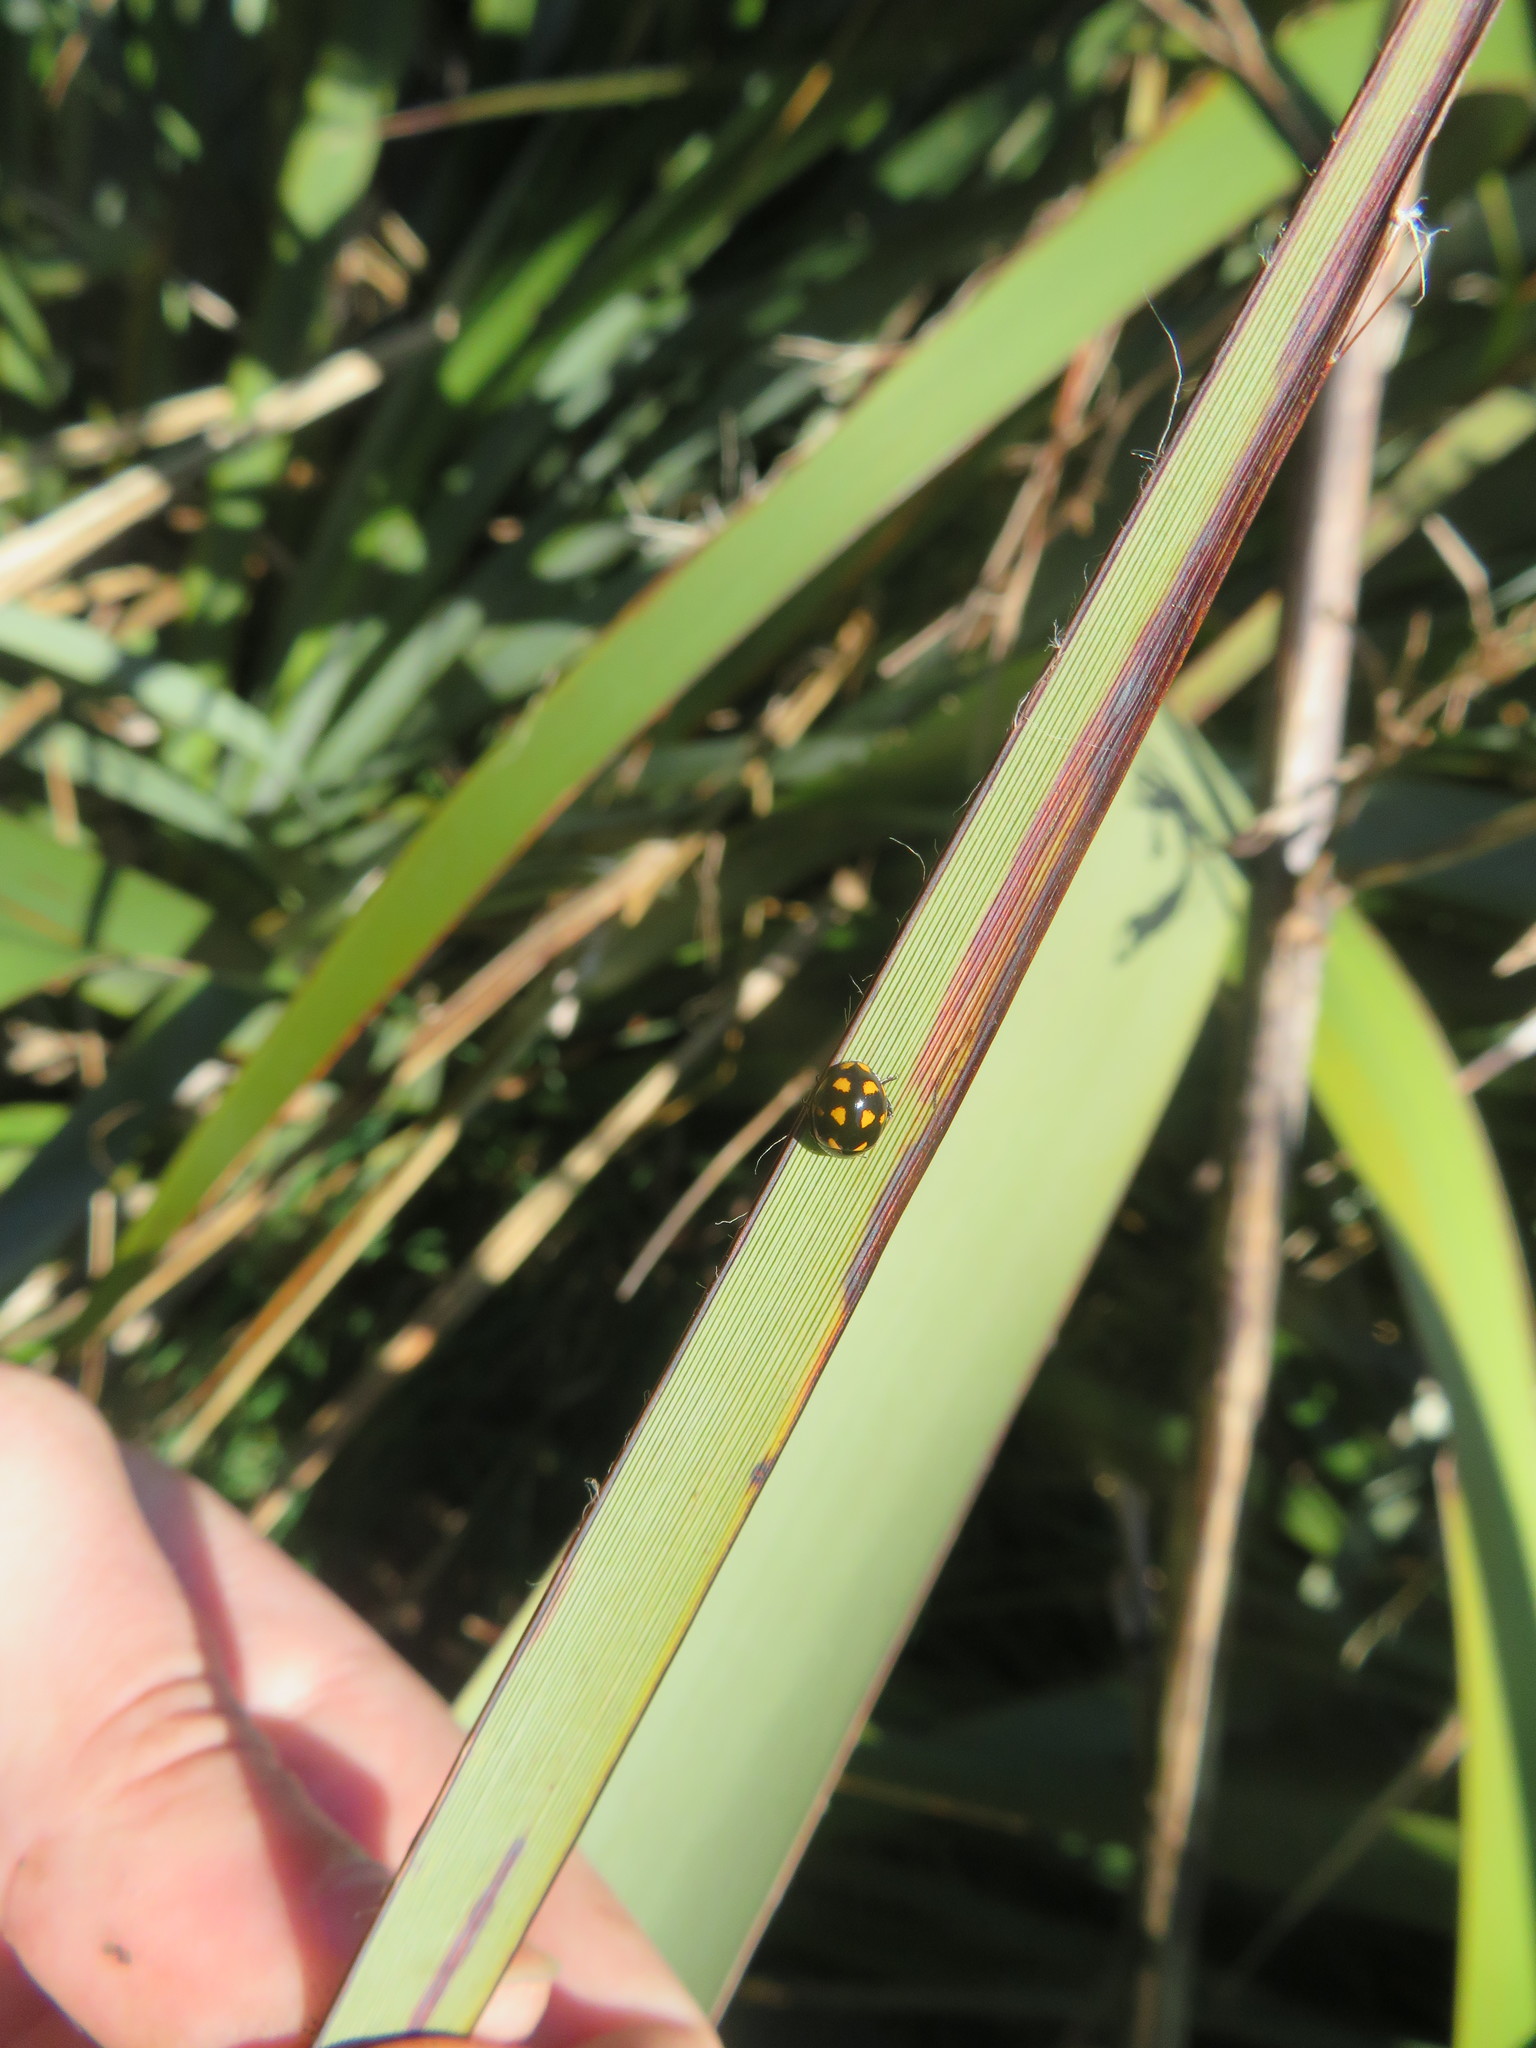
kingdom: Animalia
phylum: Arthropoda
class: Insecta
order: Coleoptera
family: Coccinellidae
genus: Coccinella
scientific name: Coccinella leonina
